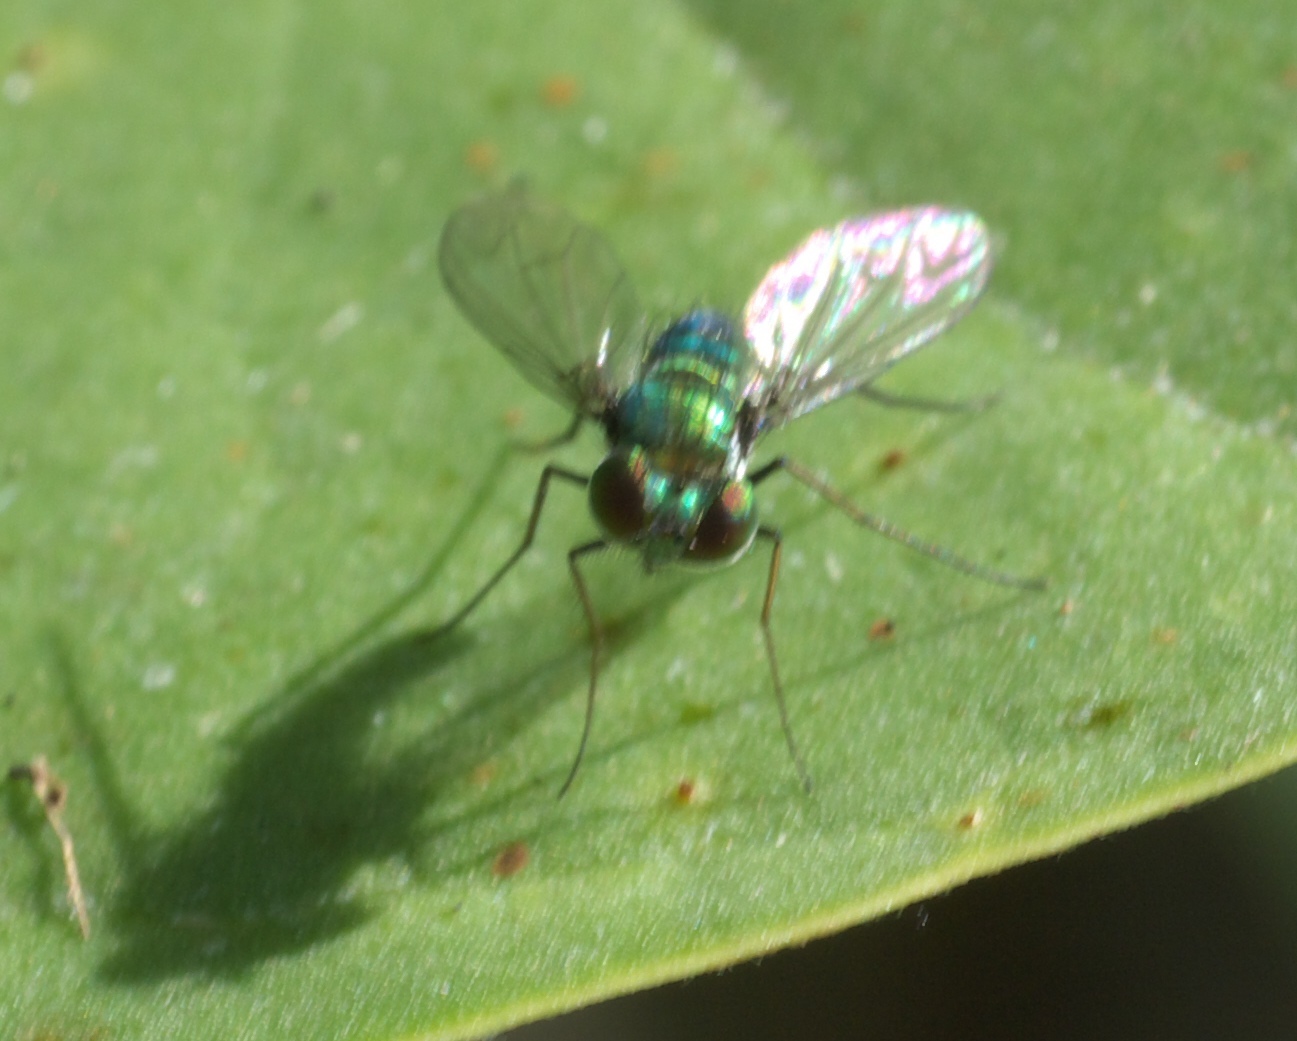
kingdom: Animalia
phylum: Arthropoda
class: Insecta
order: Diptera
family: Dolichopodidae
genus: Condylostylus
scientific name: Condylostylus purpureus
